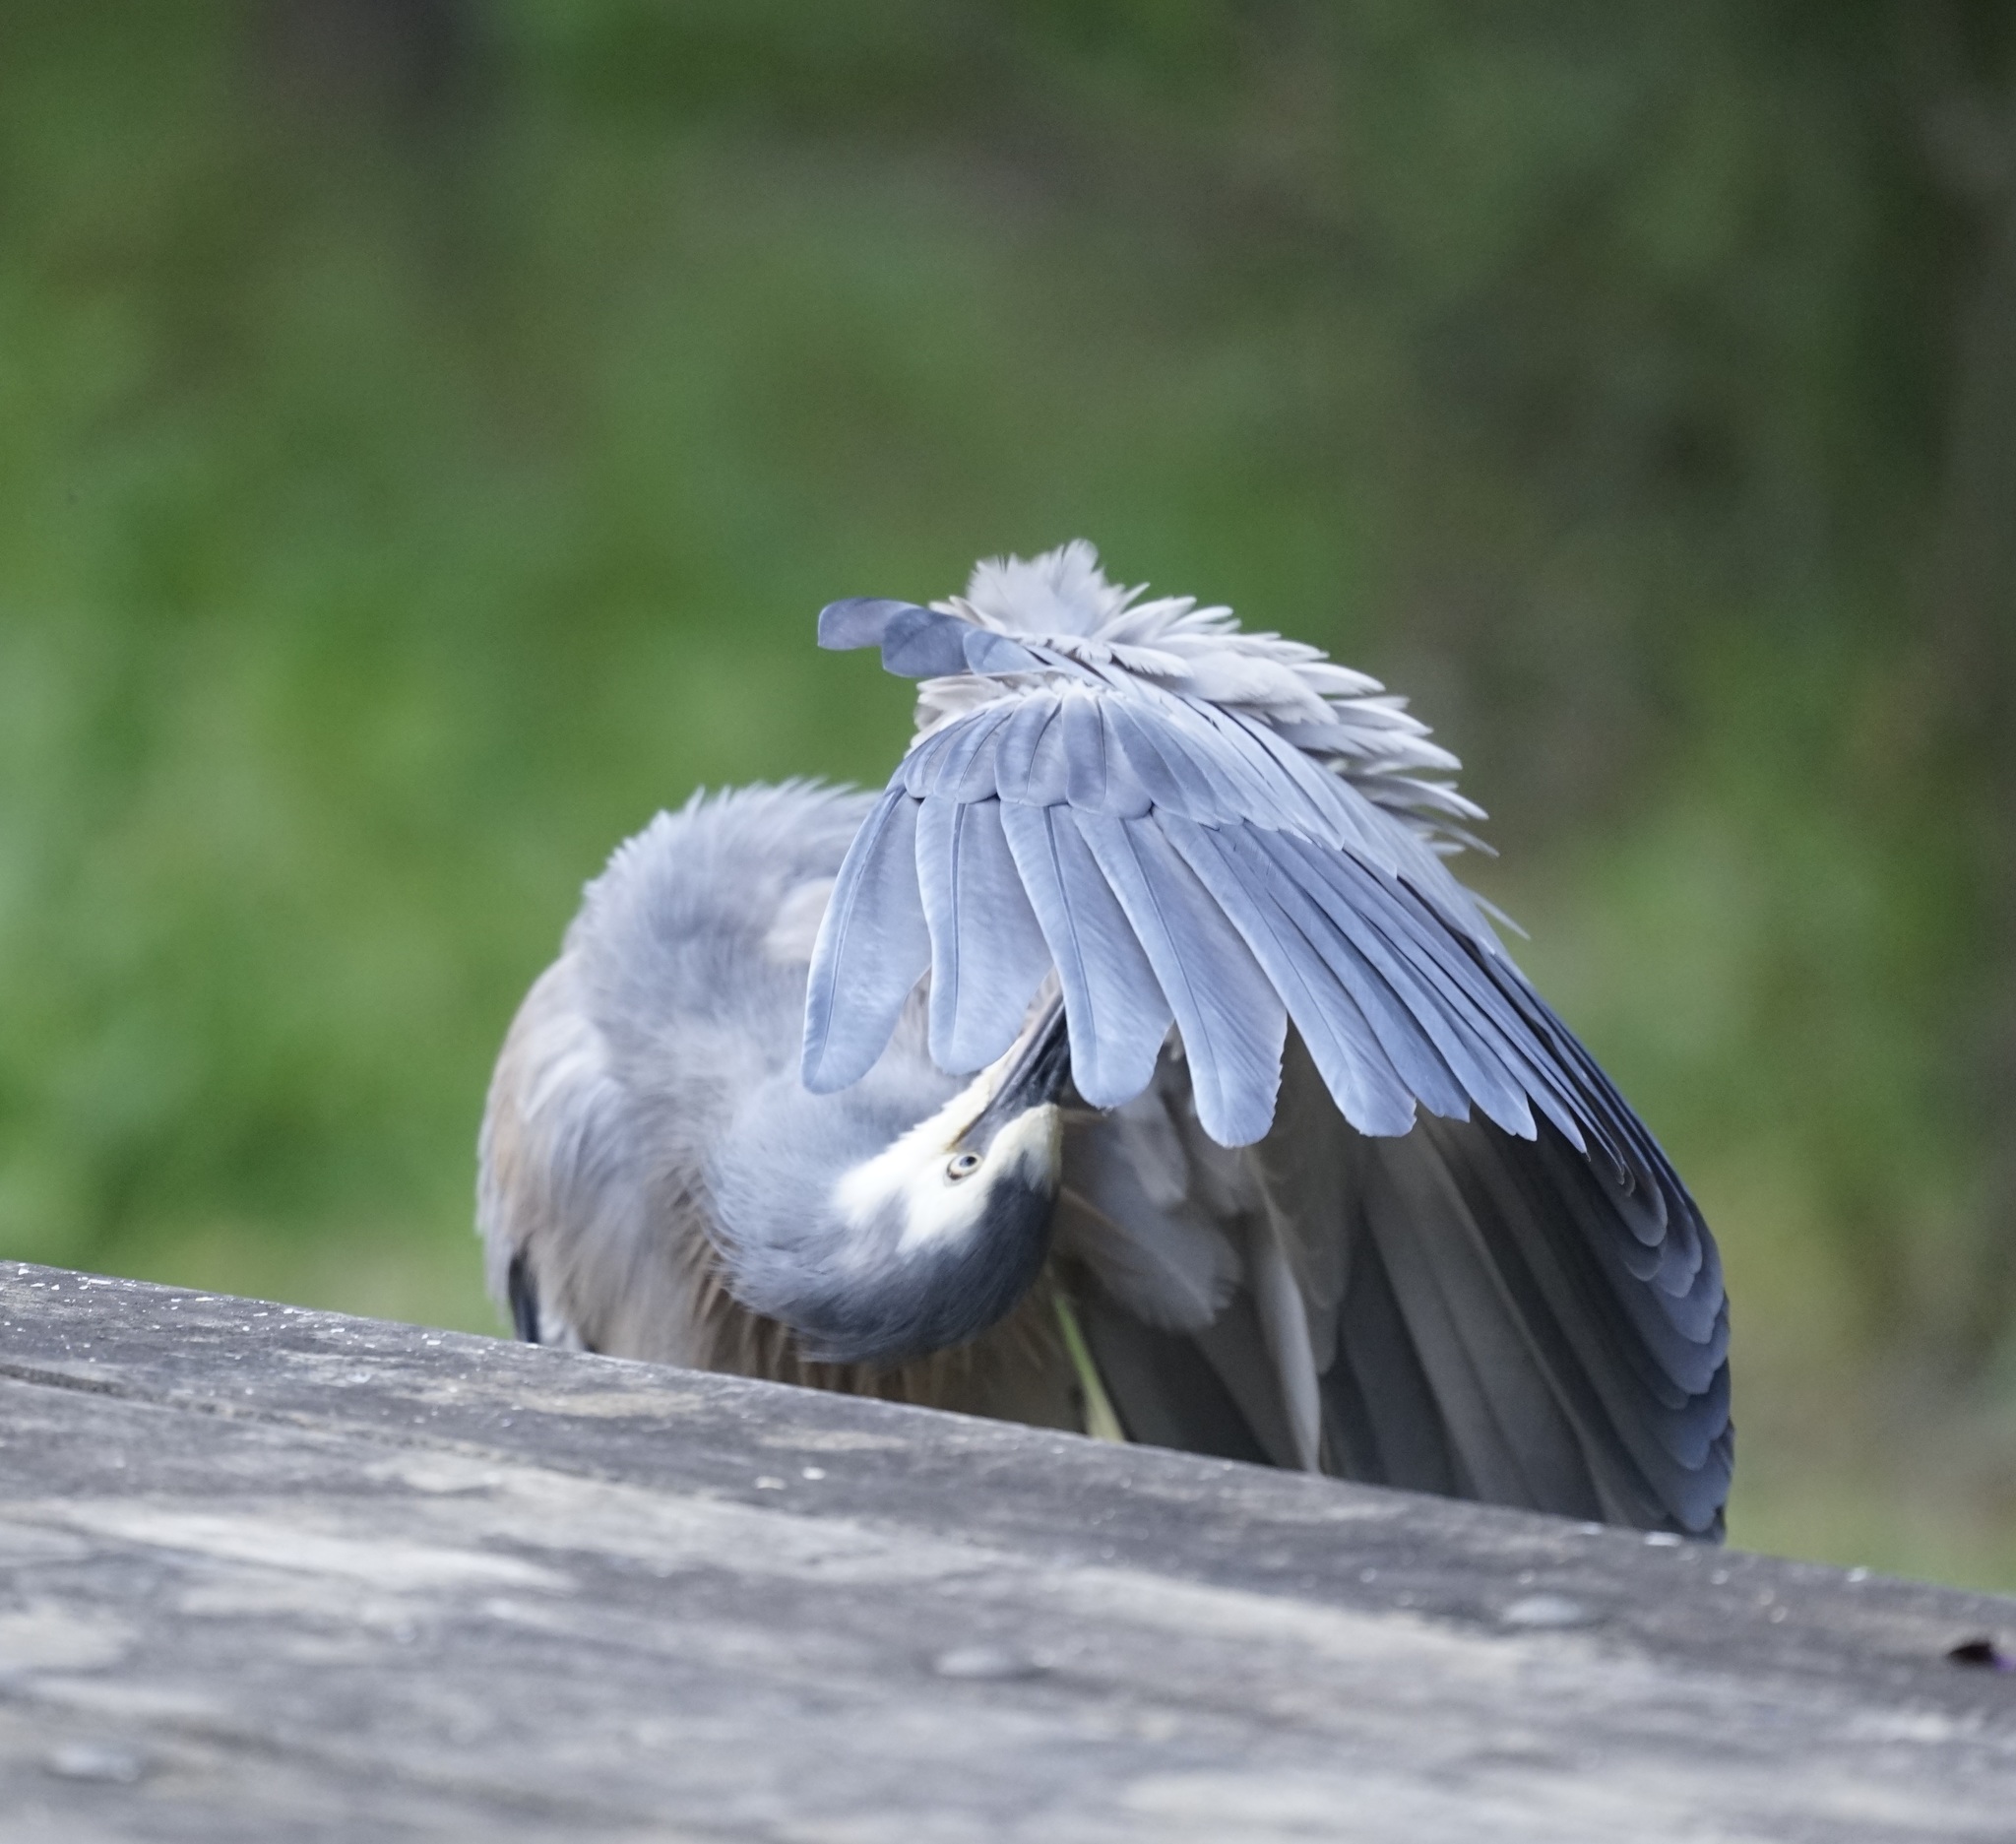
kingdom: Animalia
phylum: Chordata
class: Aves
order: Pelecaniformes
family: Ardeidae
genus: Egretta
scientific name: Egretta novaehollandiae
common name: White-faced heron
